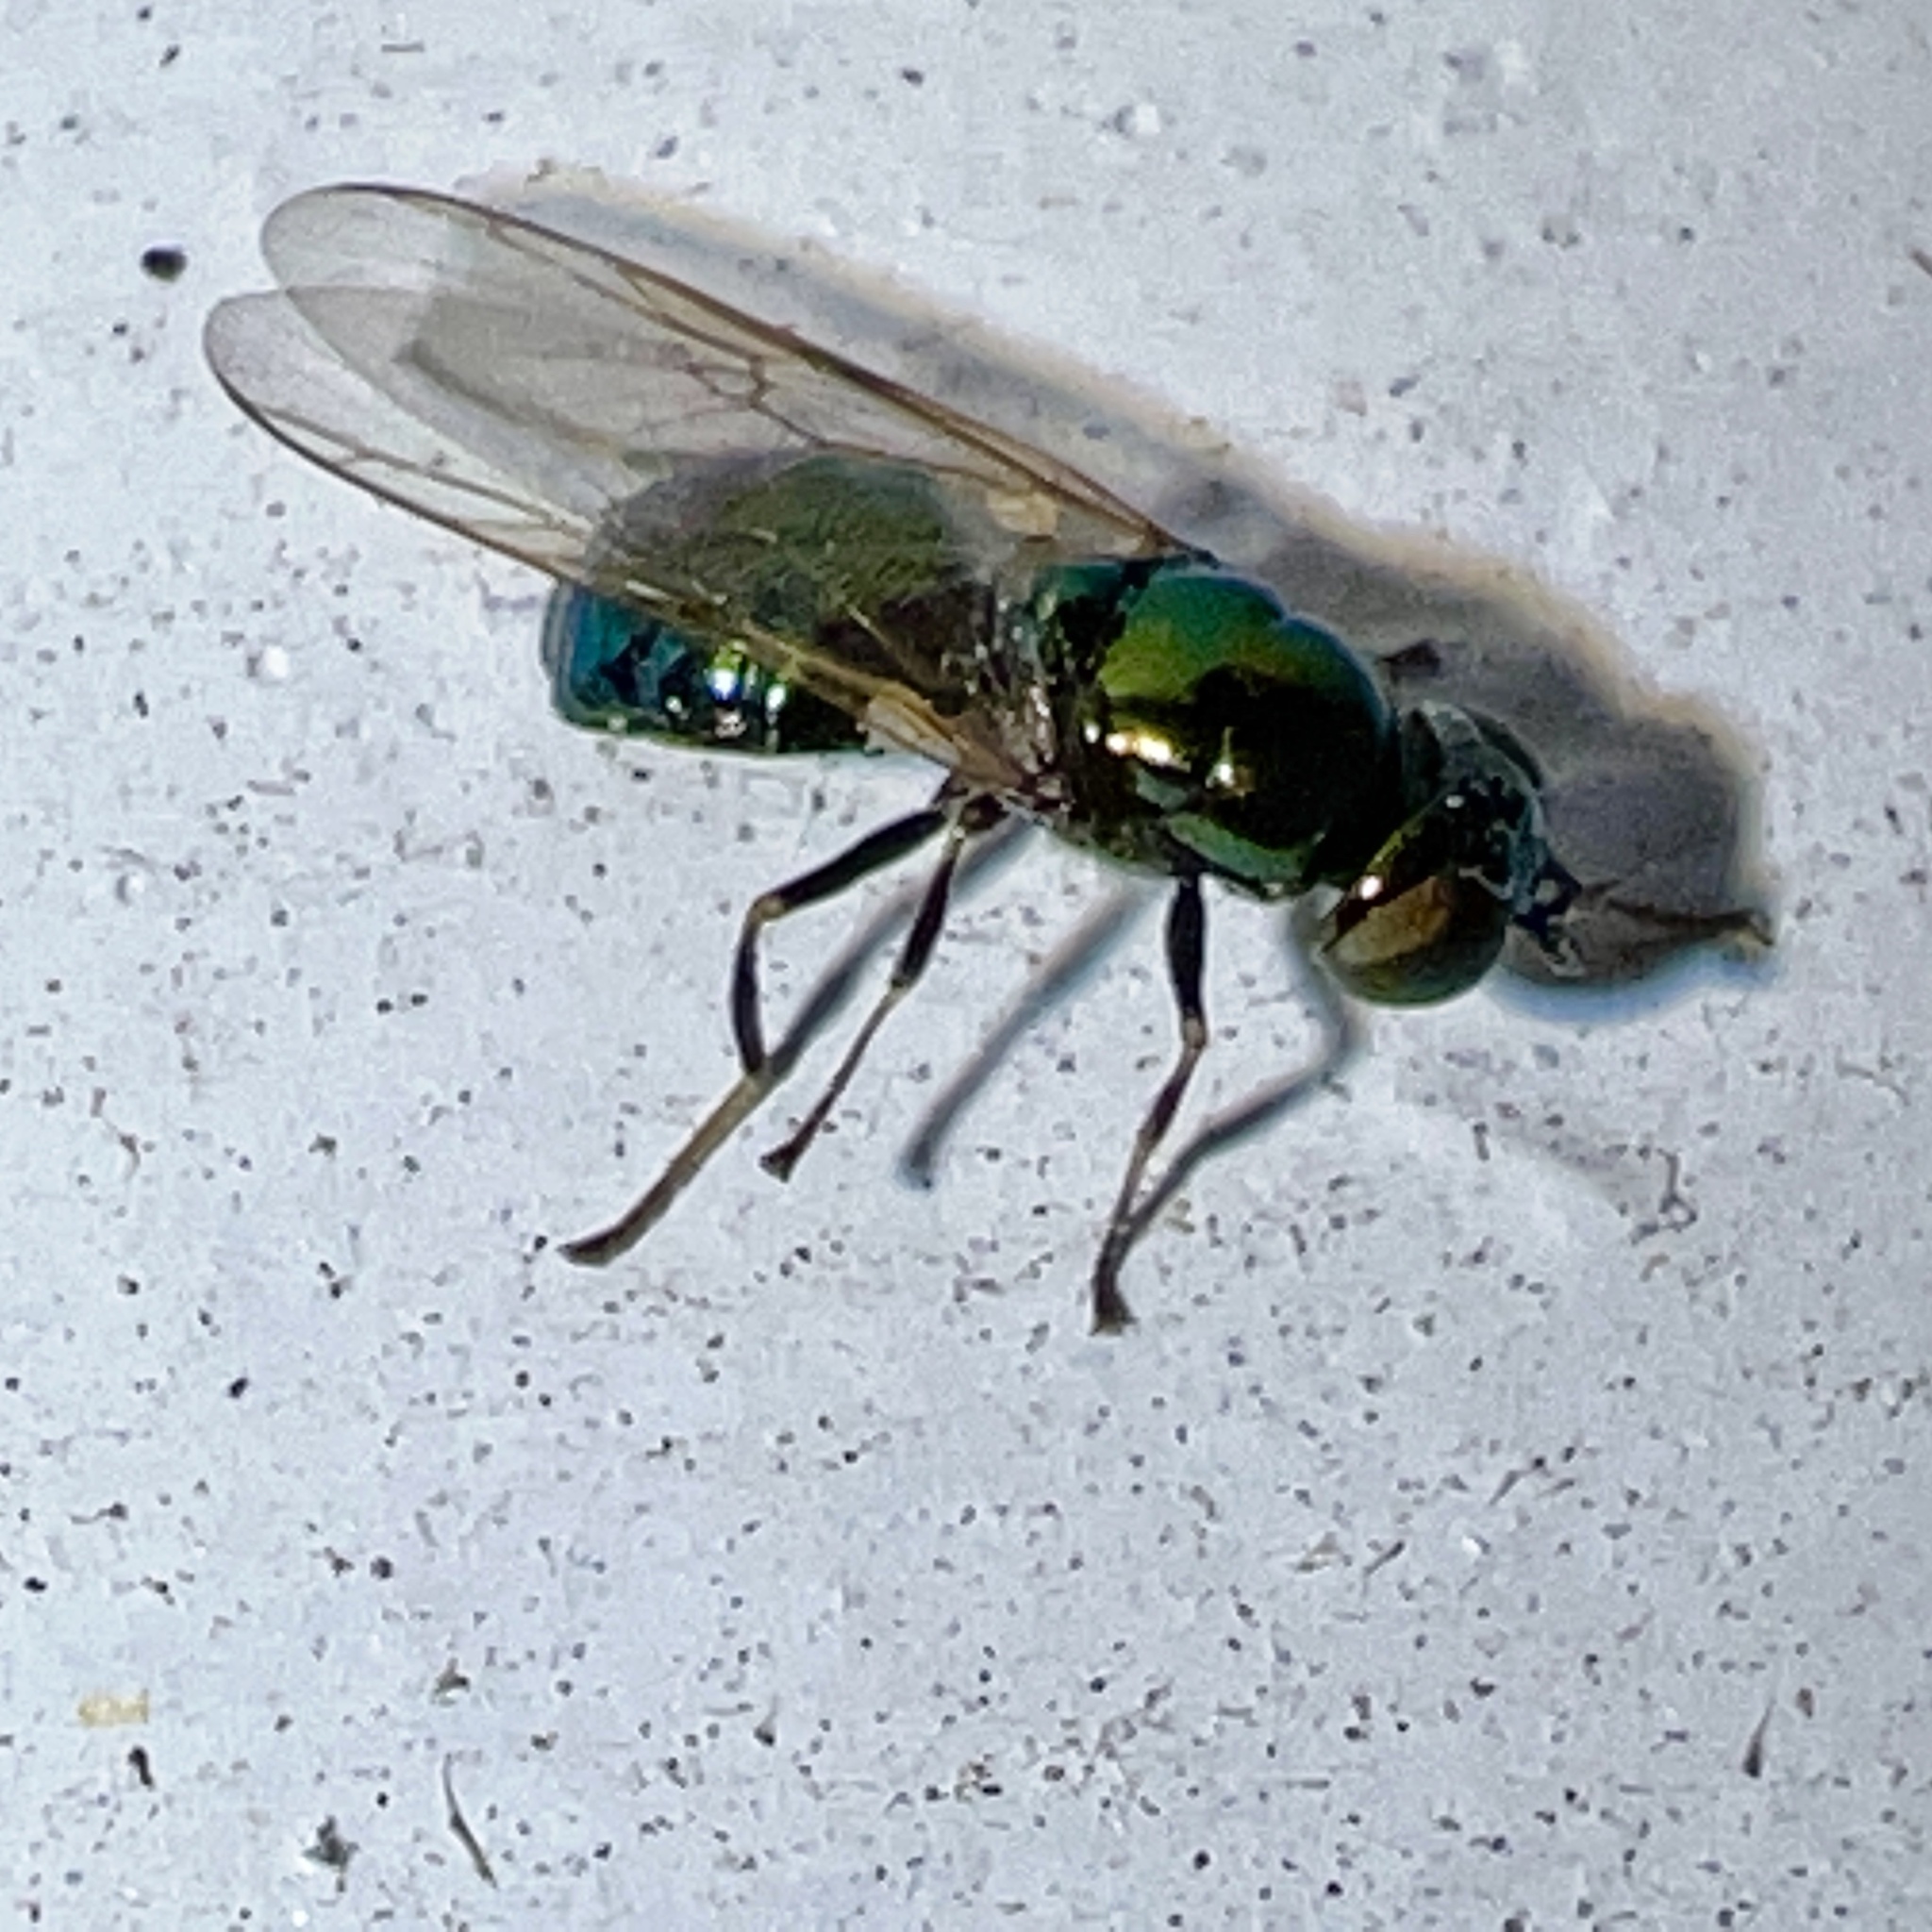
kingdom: Animalia
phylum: Arthropoda
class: Insecta
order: Diptera
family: Stratiomyidae
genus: Microchrysa
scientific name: Microchrysa polita
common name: Black-horned gem
